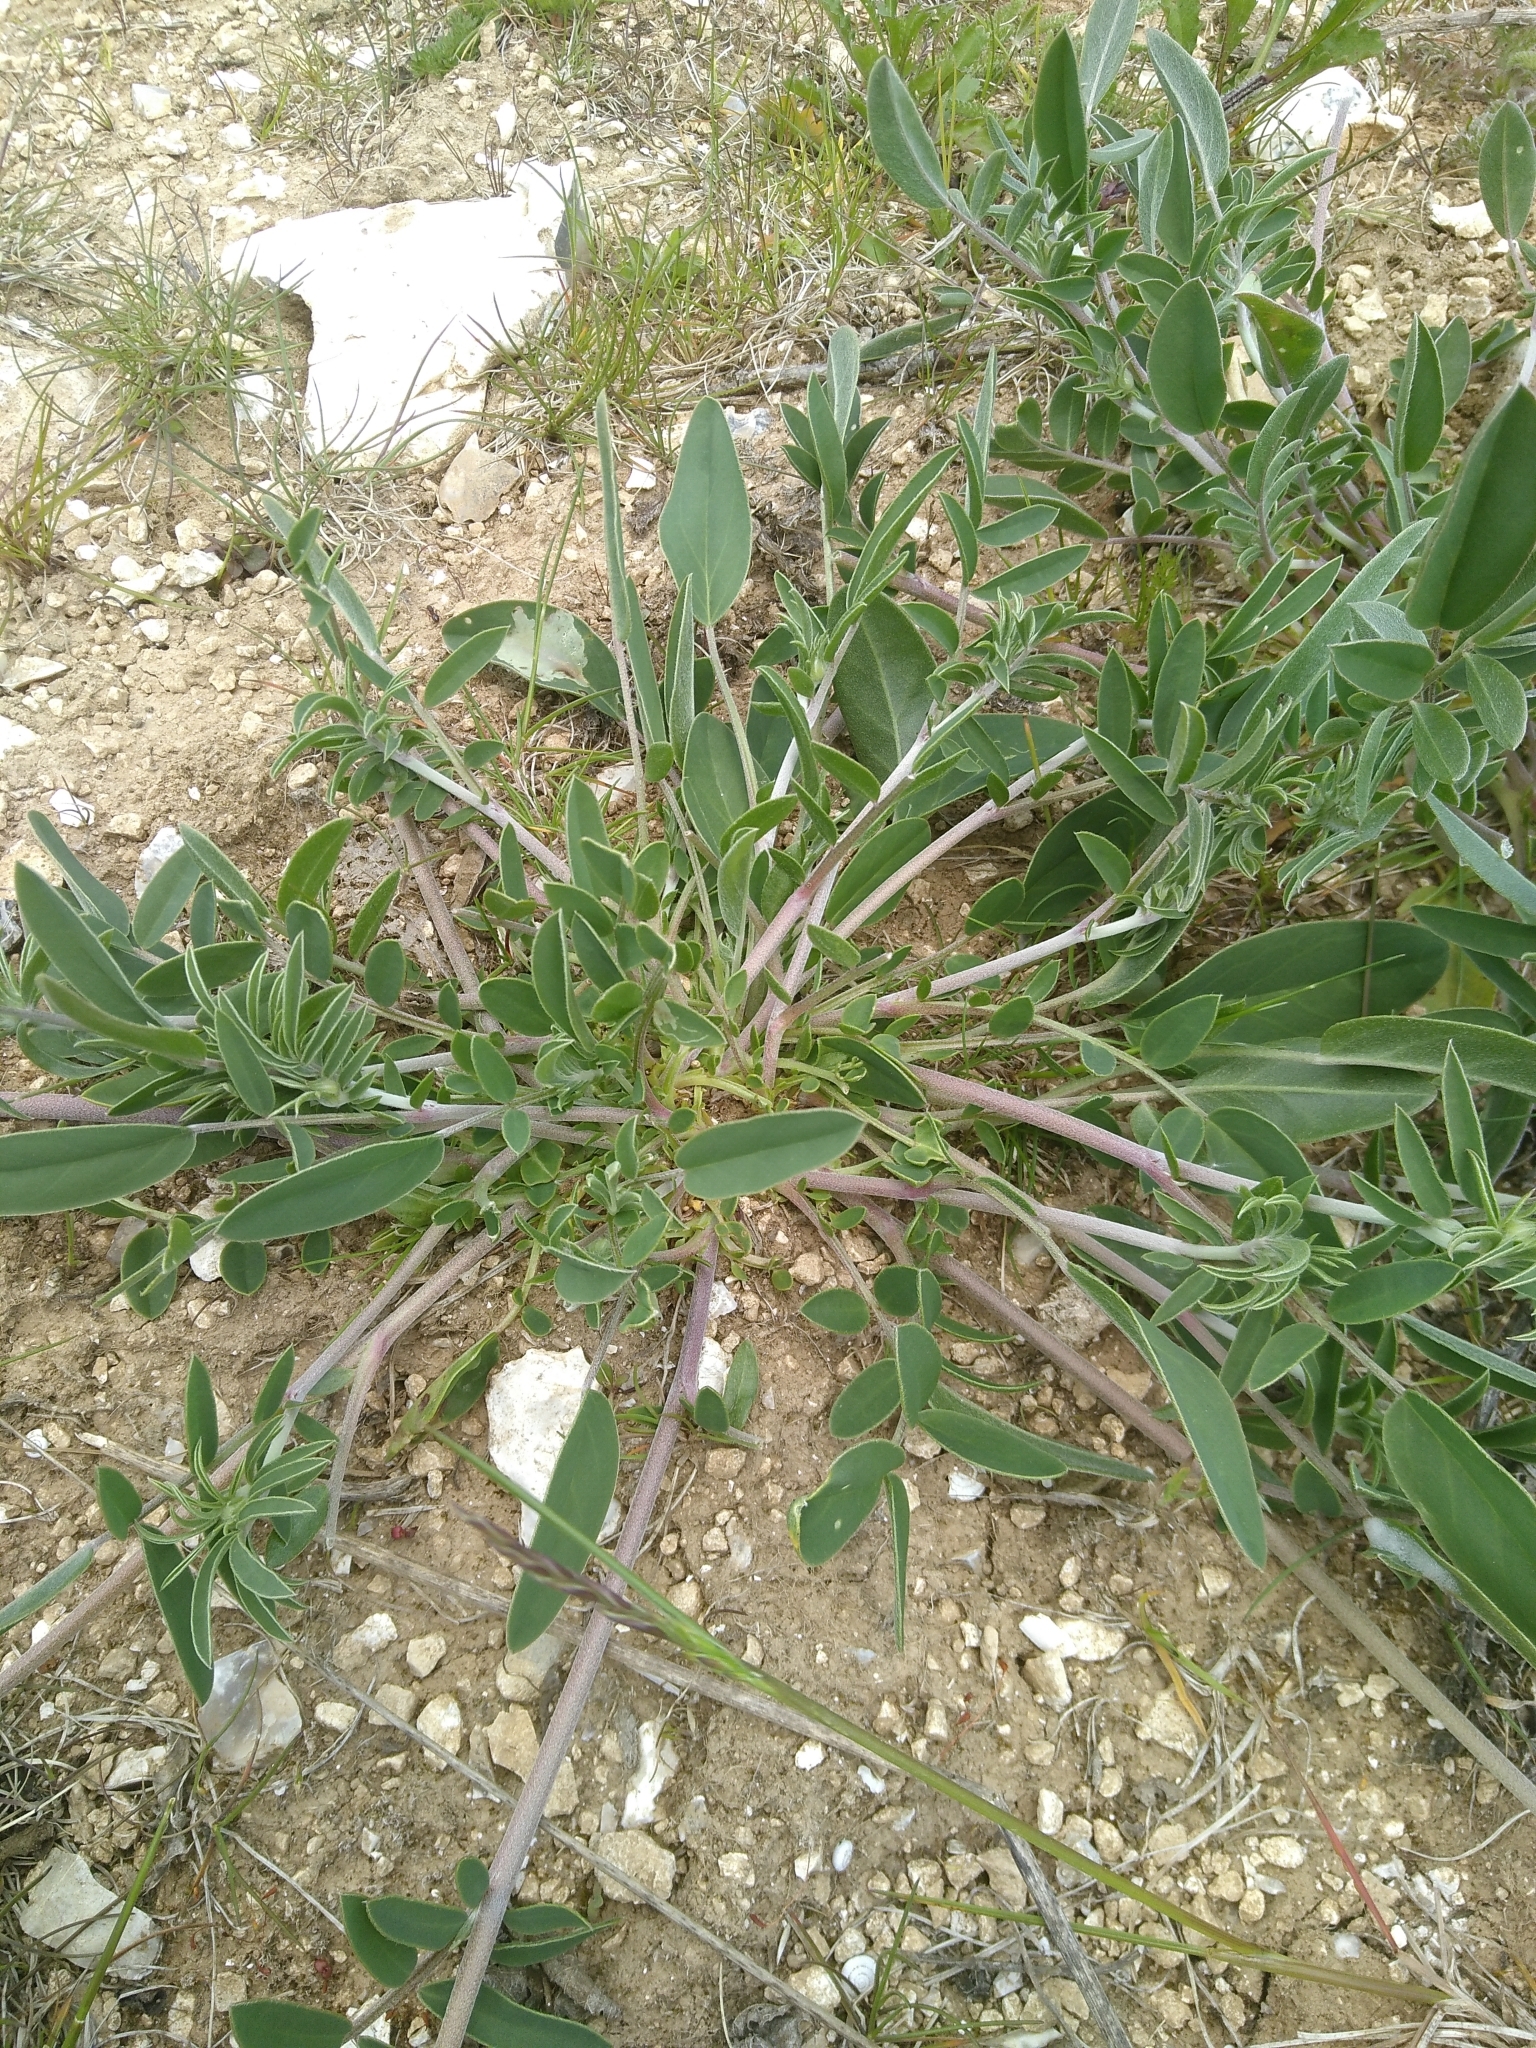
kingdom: Plantae
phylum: Tracheophyta
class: Magnoliopsida
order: Fabales
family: Fabaceae
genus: Anthyllis
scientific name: Anthyllis vulneraria
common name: Kidney vetch
